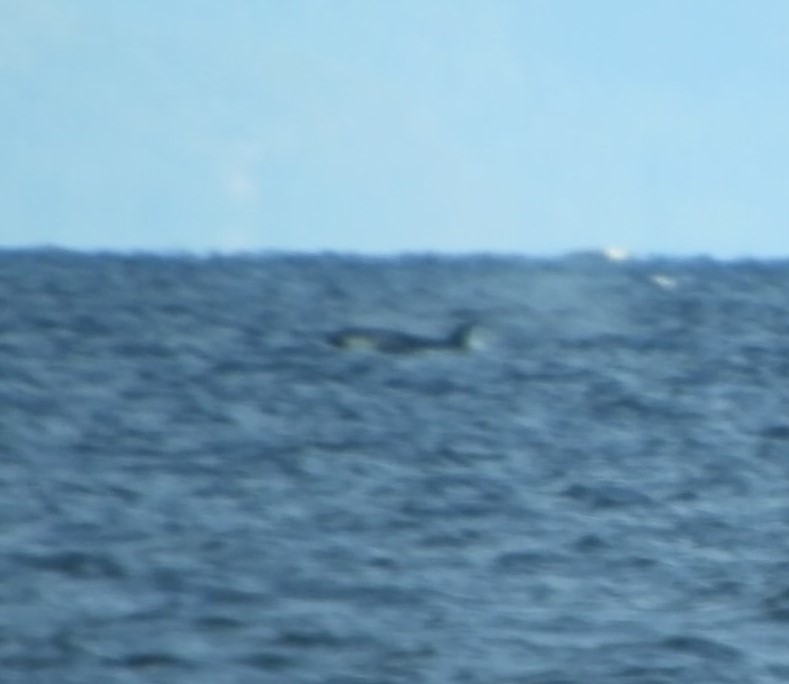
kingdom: Animalia
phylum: Chordata
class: Mammalia
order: Cetacea
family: Delphinidae
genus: Orcinus
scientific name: Orcinus orca
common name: Killer whale
